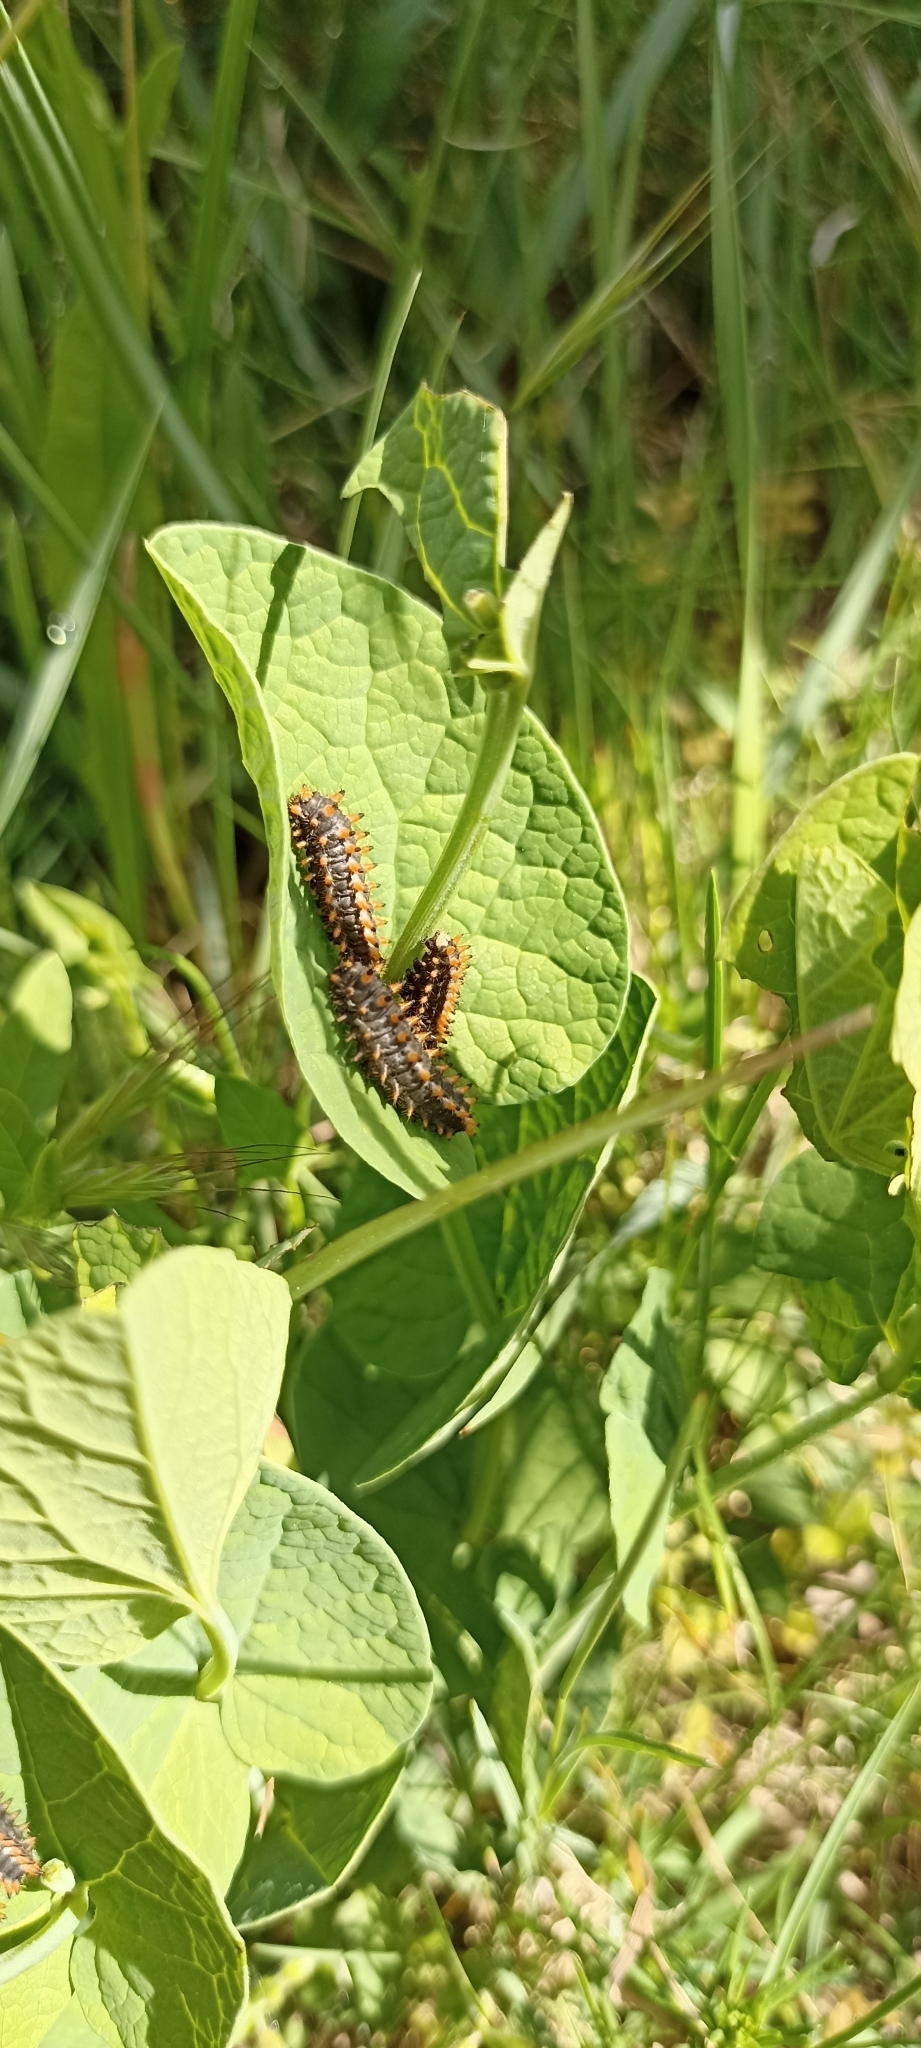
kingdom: Animalia
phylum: Arthropoda
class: Insecta
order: Lepidoptera
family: Papilionidae
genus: Zerynthia
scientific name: Zerynthia polyxena
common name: Southern festoon
